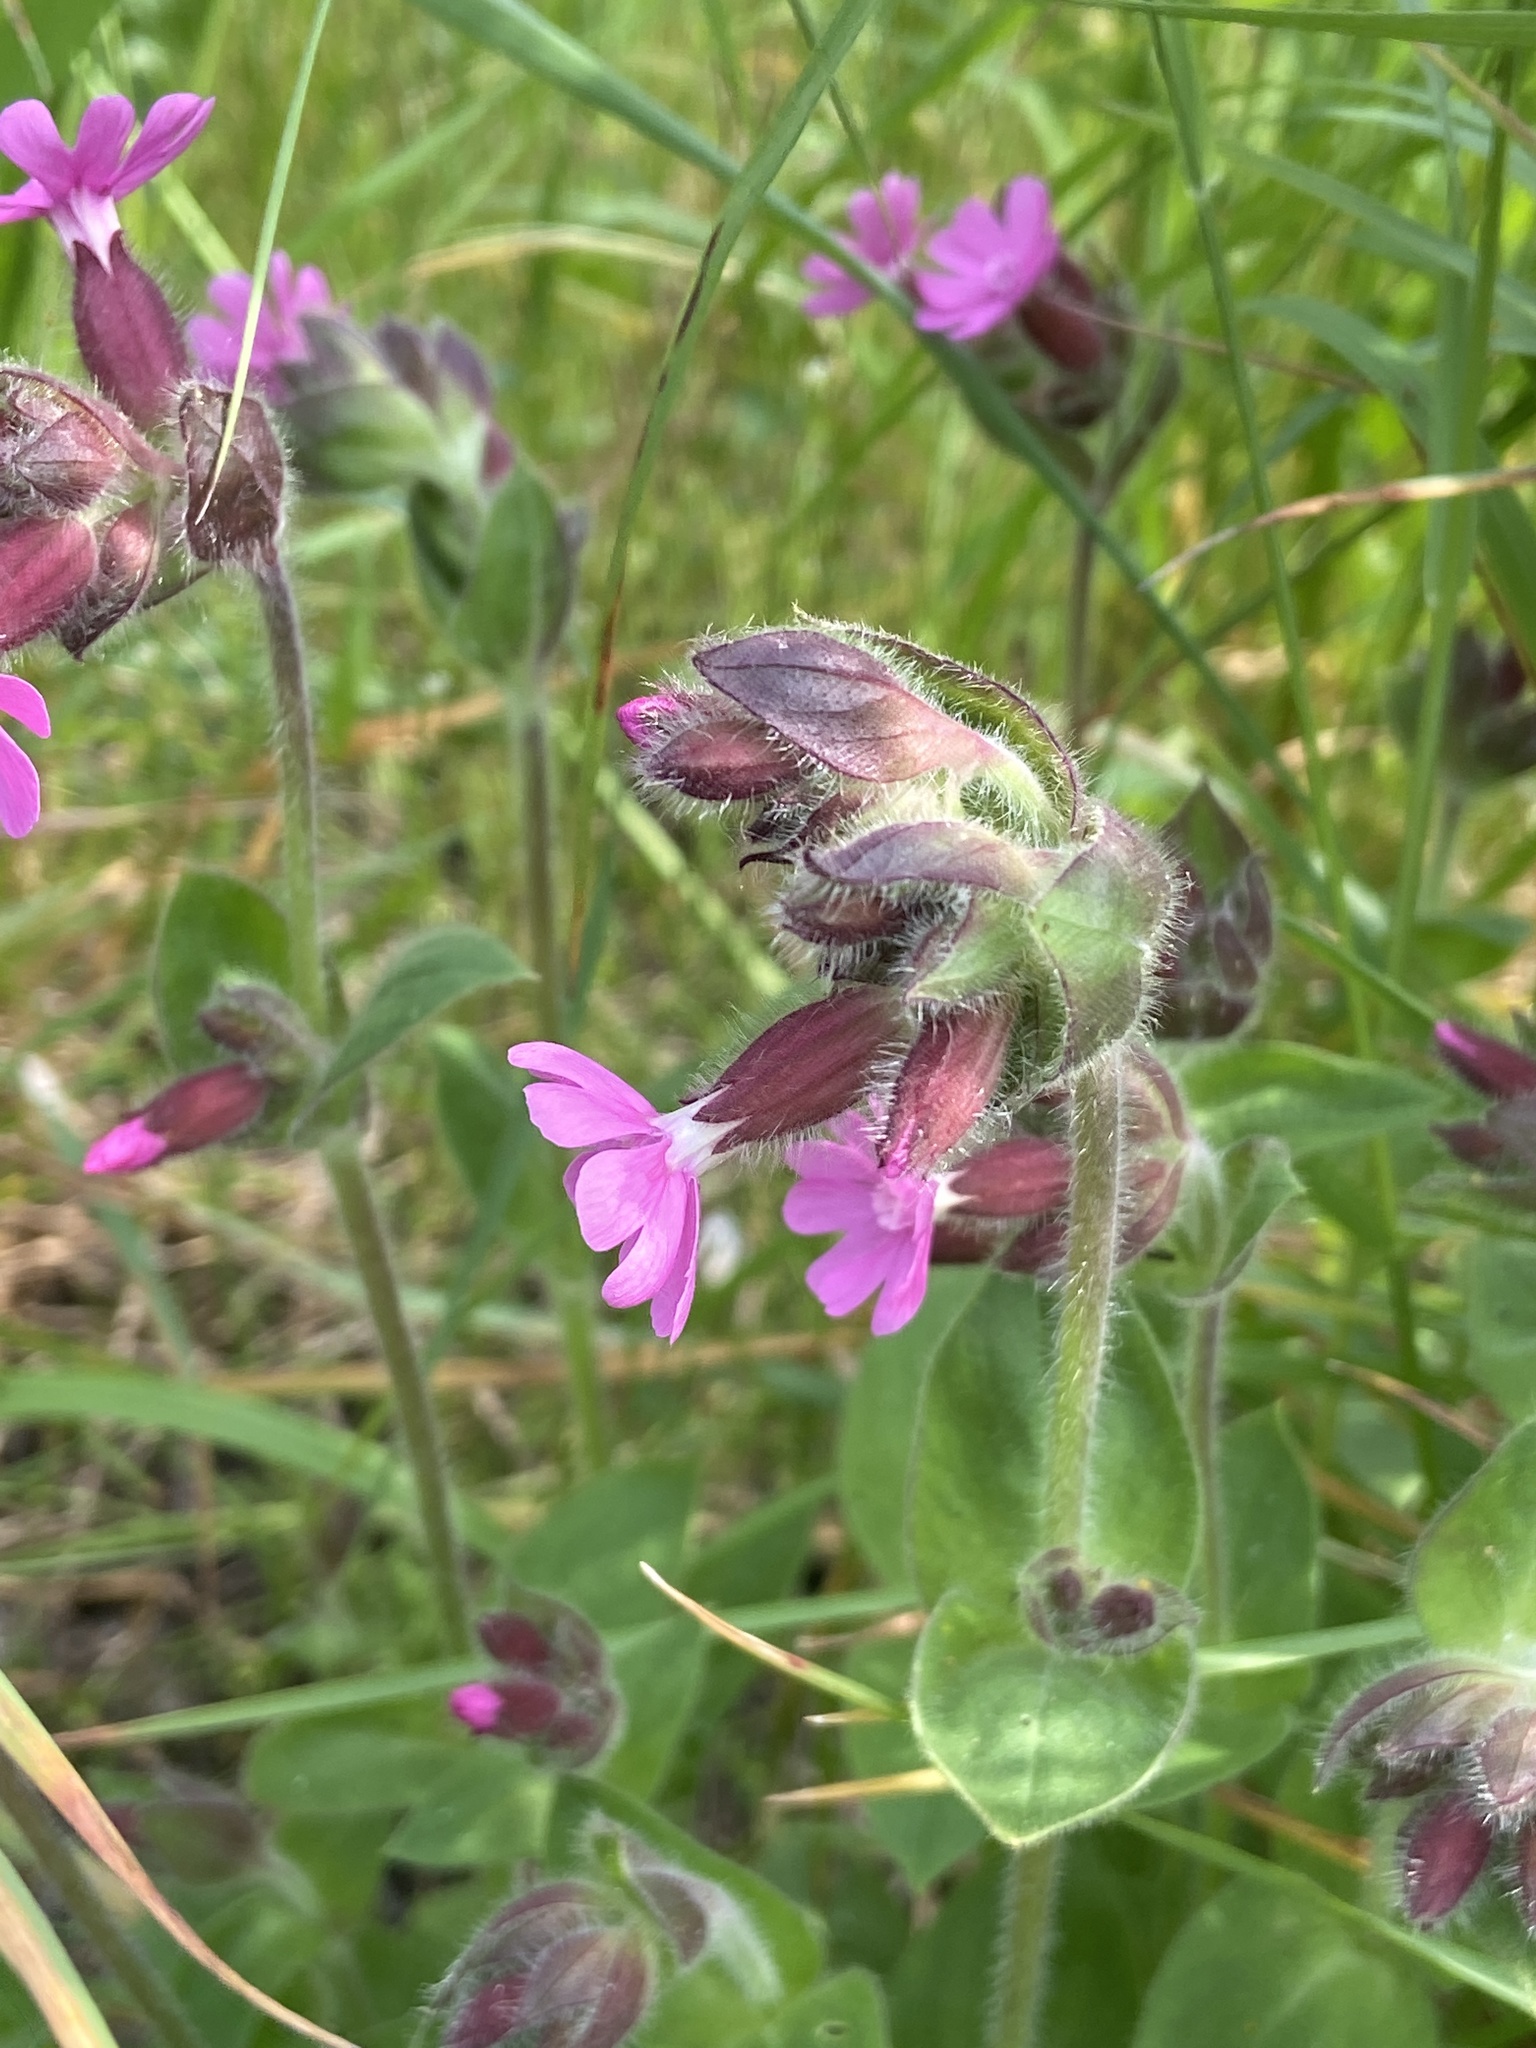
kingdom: Plantae
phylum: Tracheophyta
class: Magnoliopsida
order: Caryophyllales
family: Caryophyllaceae
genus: Silene
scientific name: Silene dioica
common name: Red campion
